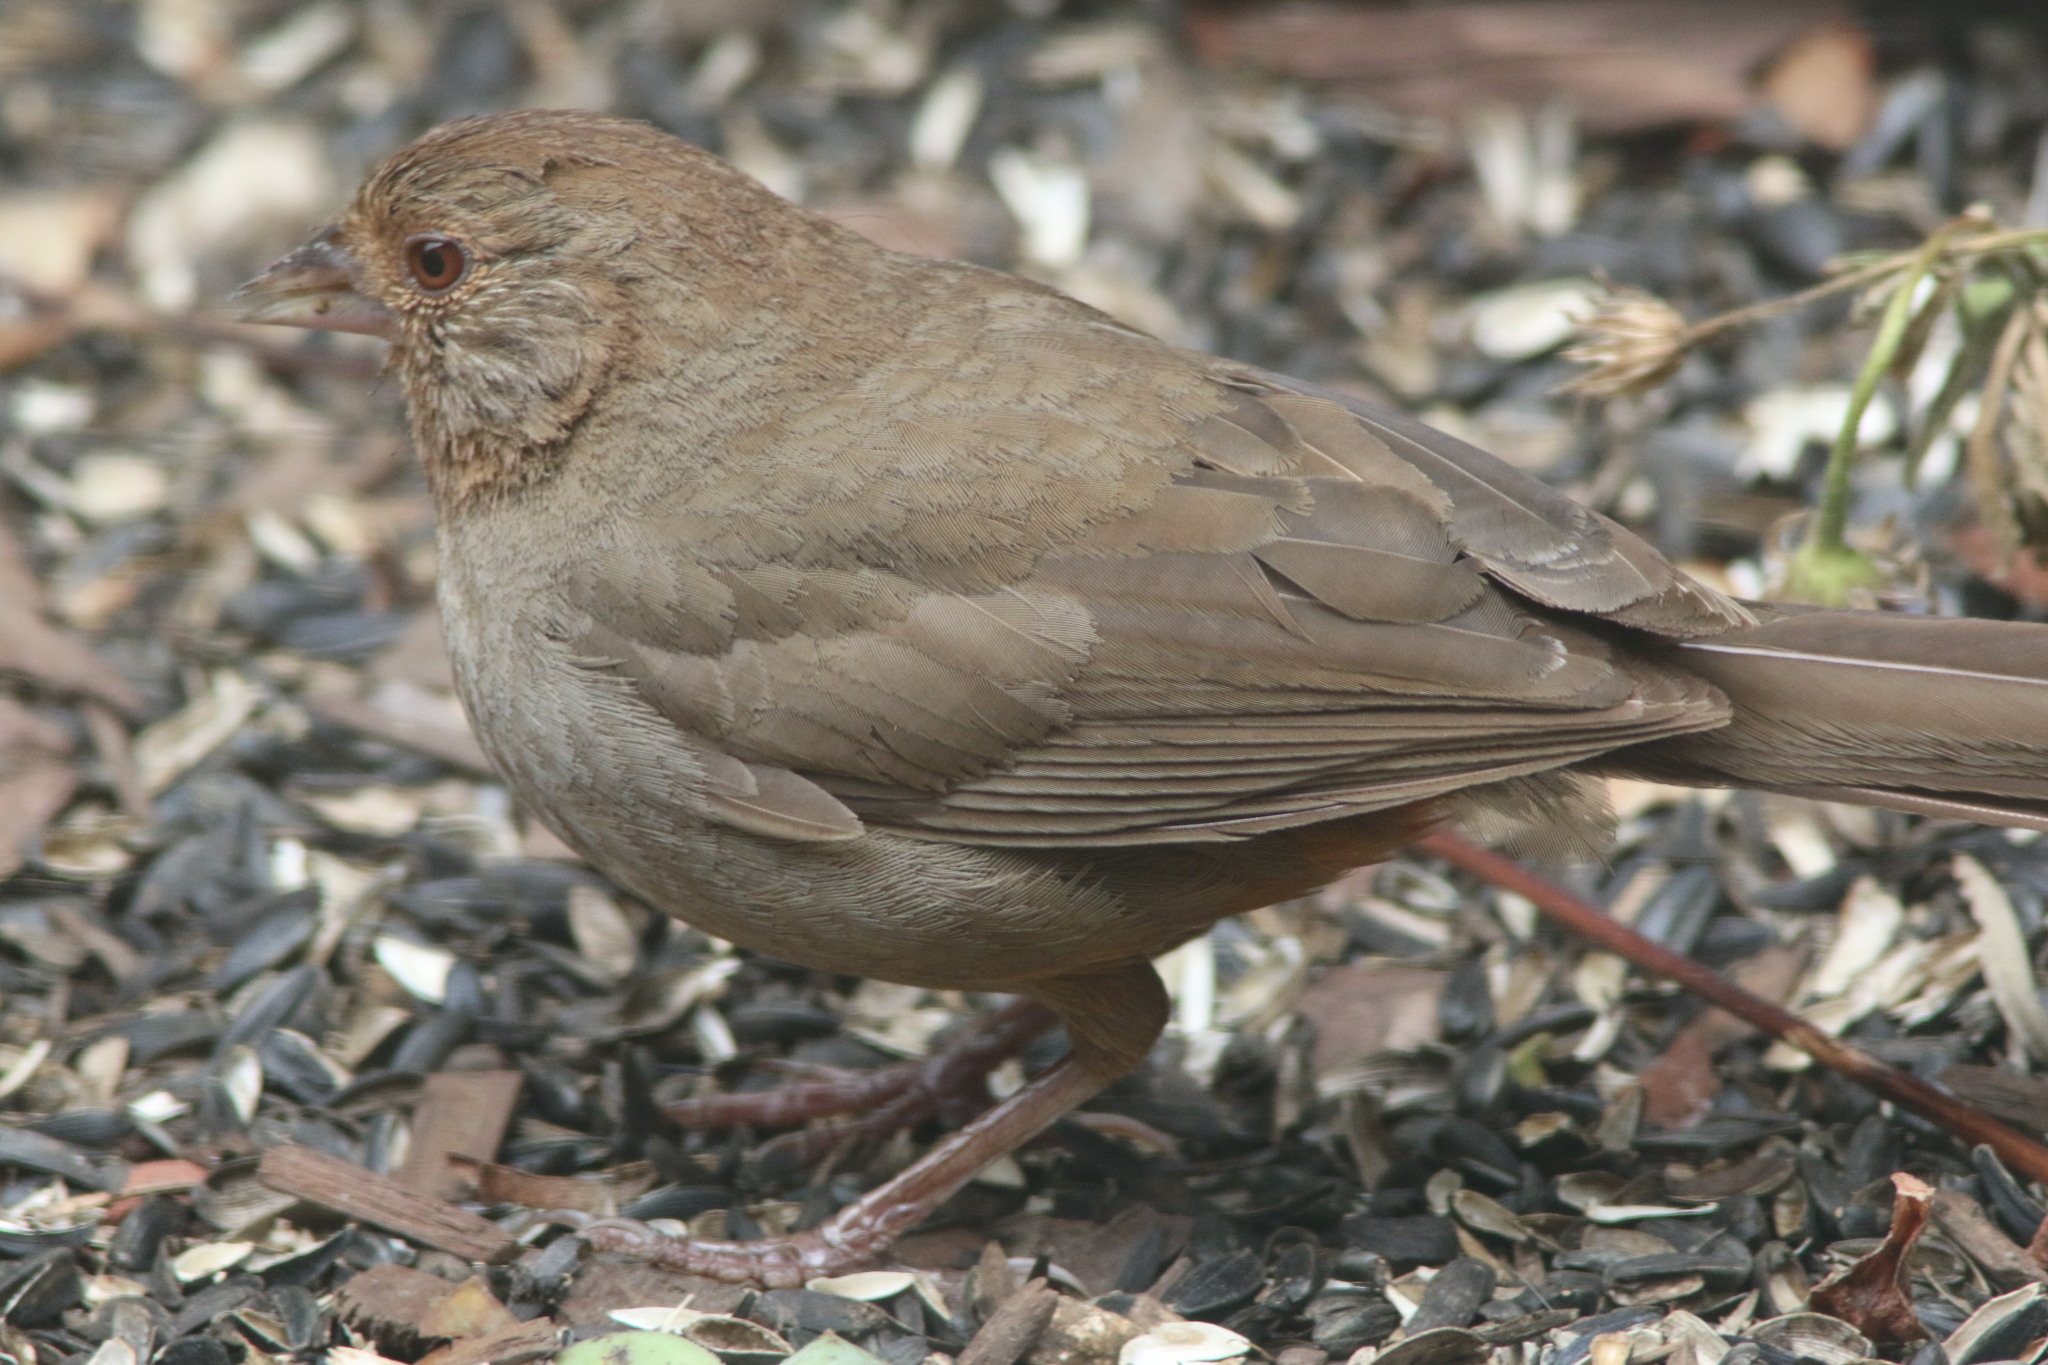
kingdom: Animalia
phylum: Chordata
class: Aves
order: Passeriformes
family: Passerellidae
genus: Melozone
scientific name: Melozone crissalis
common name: California towhee
